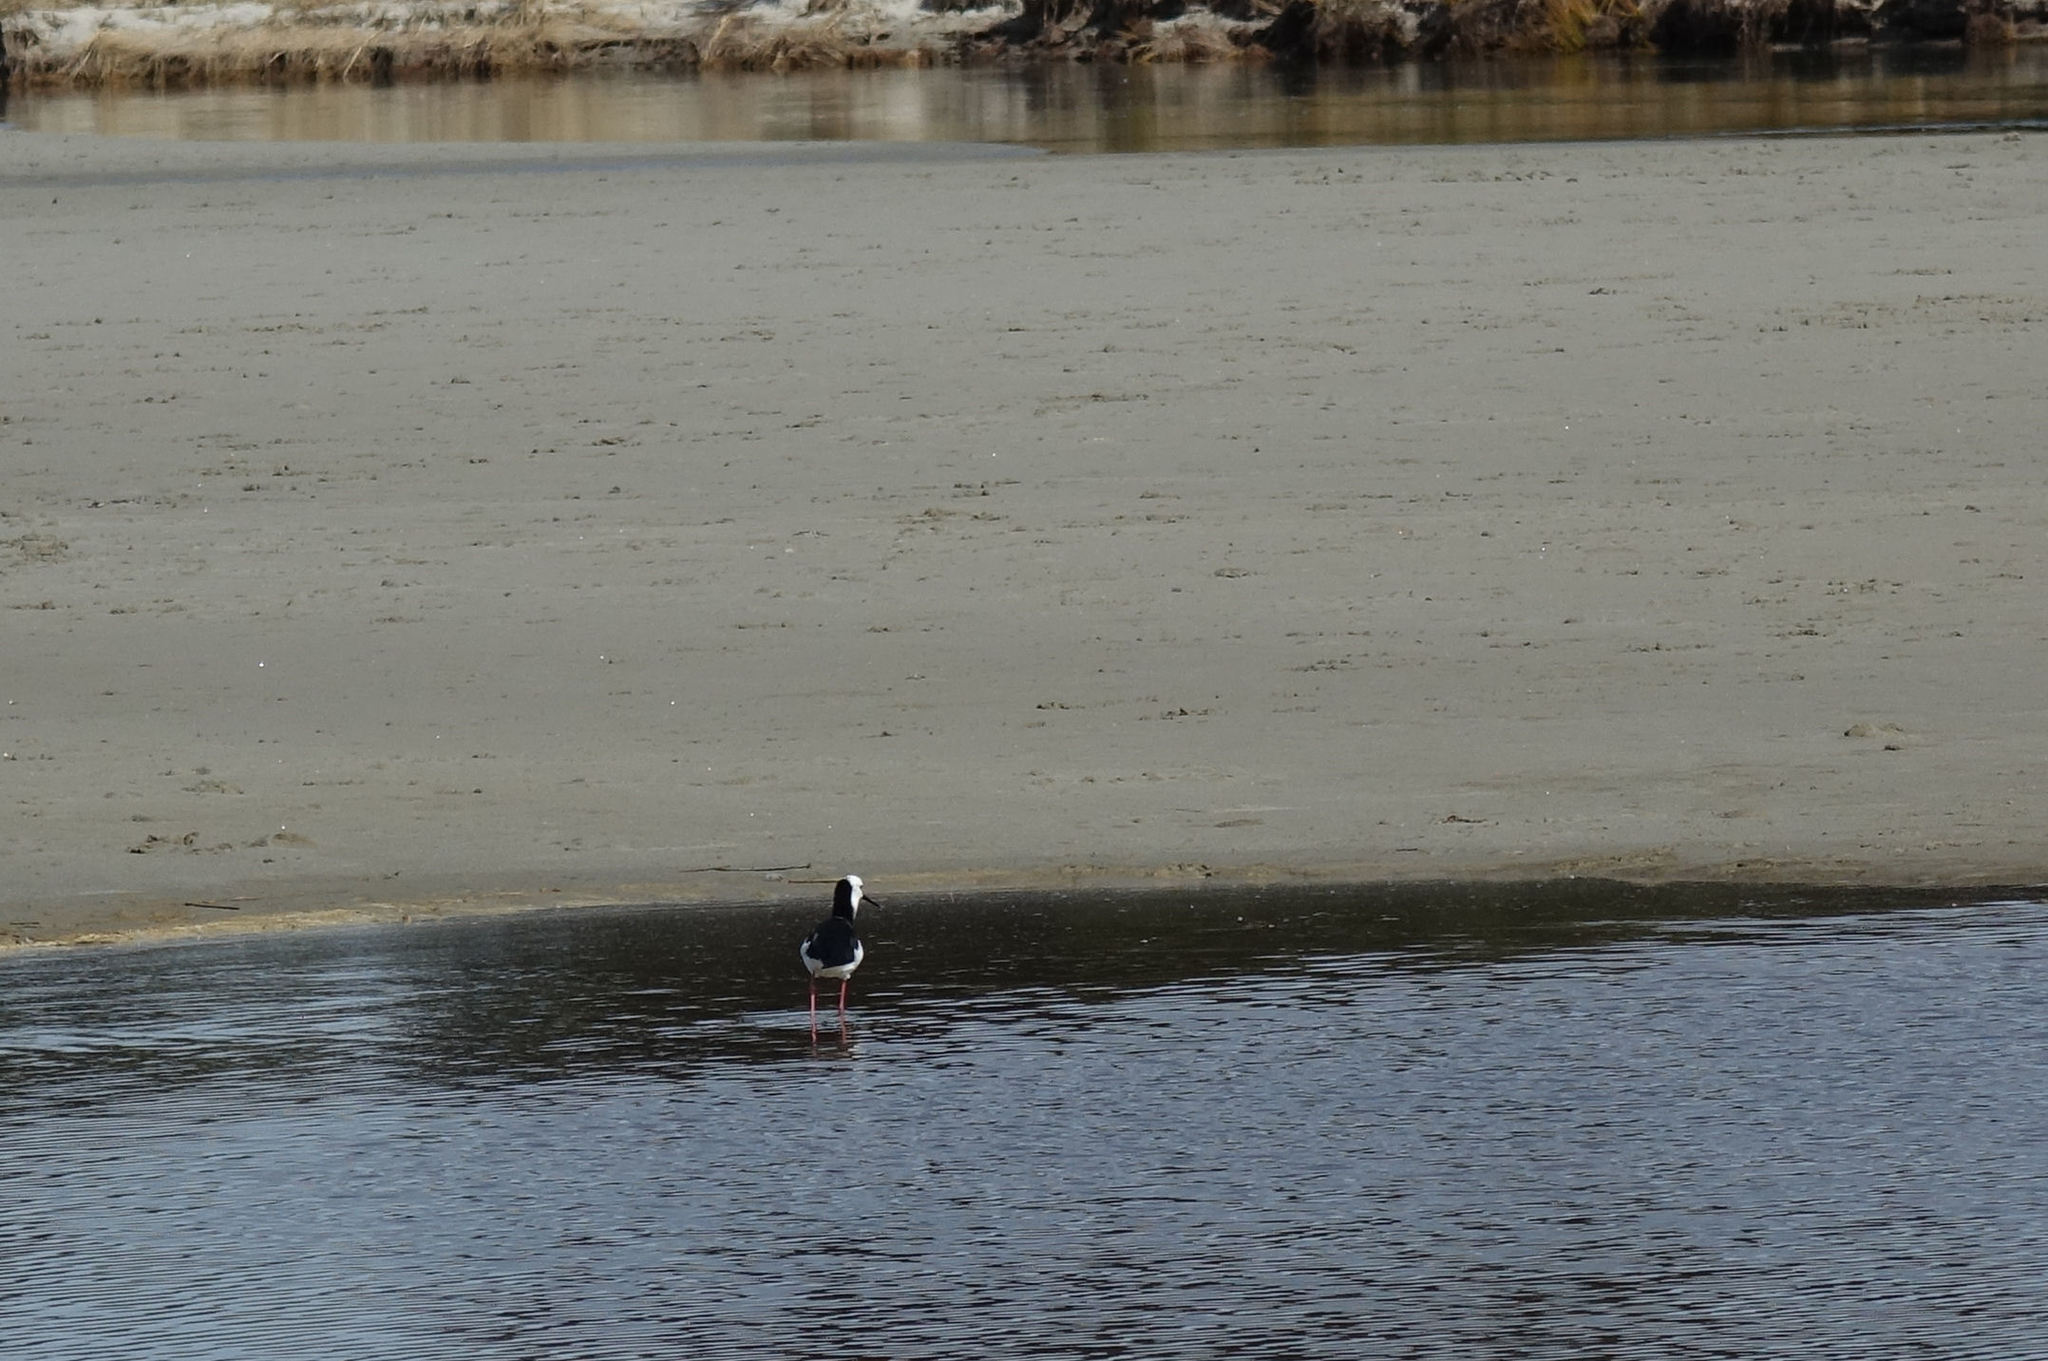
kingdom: Animalia
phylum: Chordata
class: Aves
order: Charadriiformes
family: Recurvirostridae
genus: Himantopus
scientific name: Himantopus leucocephalus
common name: White-headed stilt
